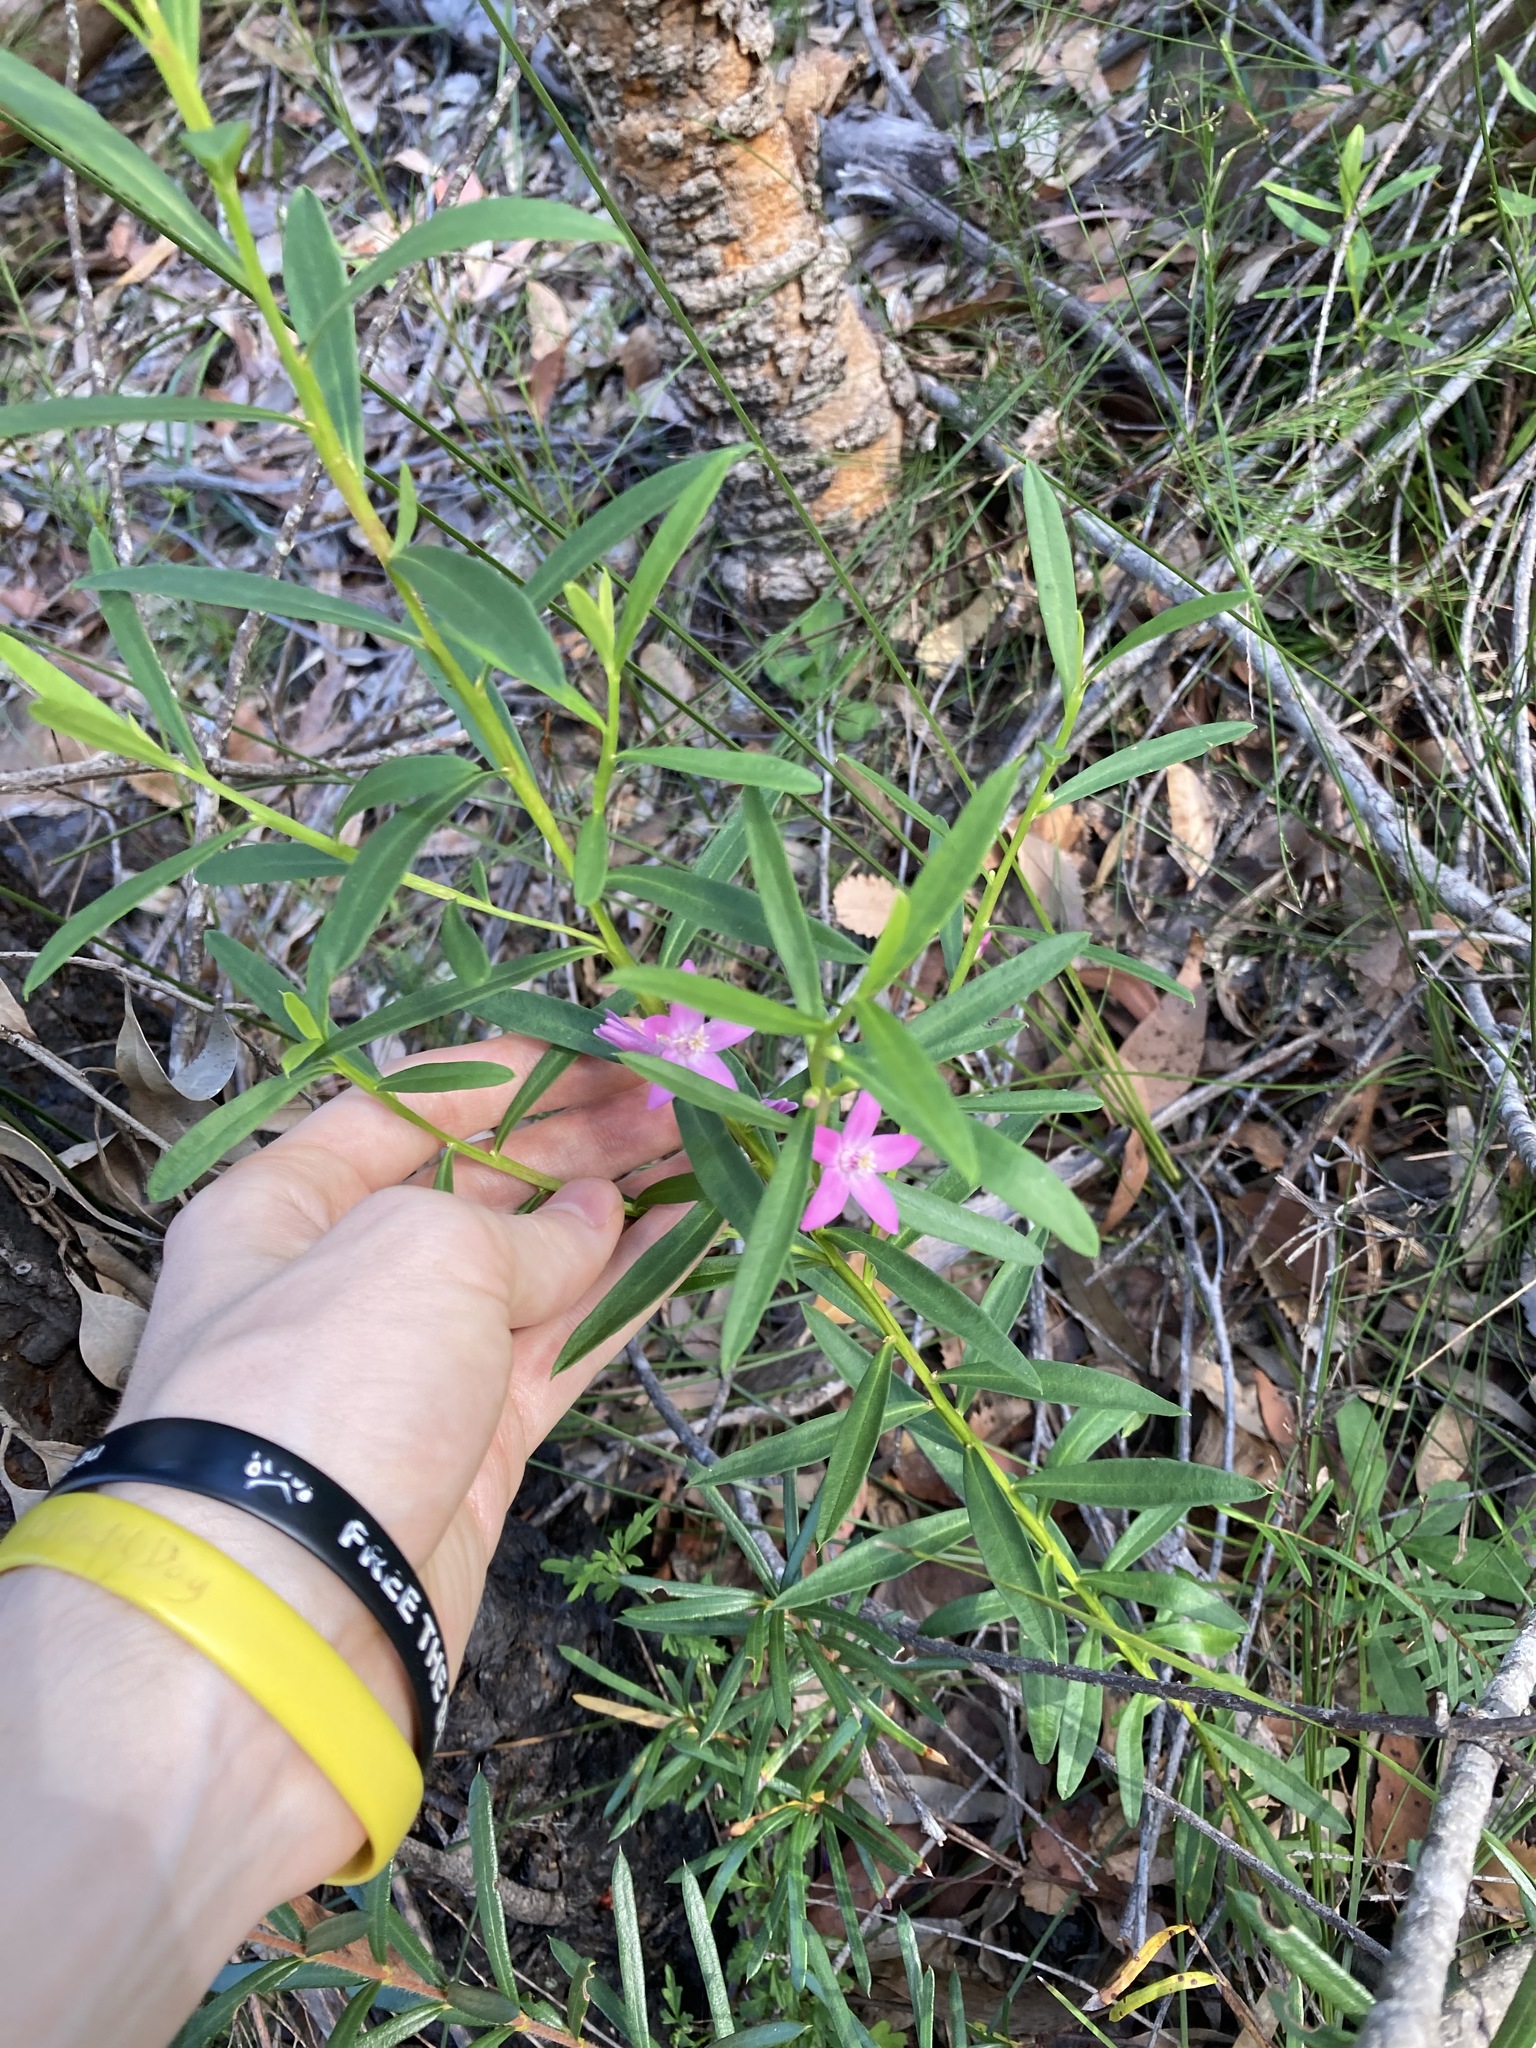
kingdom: Plantae
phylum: Tracheophyta
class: Magnoliopsida
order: Sapindales
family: Rutaceae
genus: Crowea
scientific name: Crowea saligna
